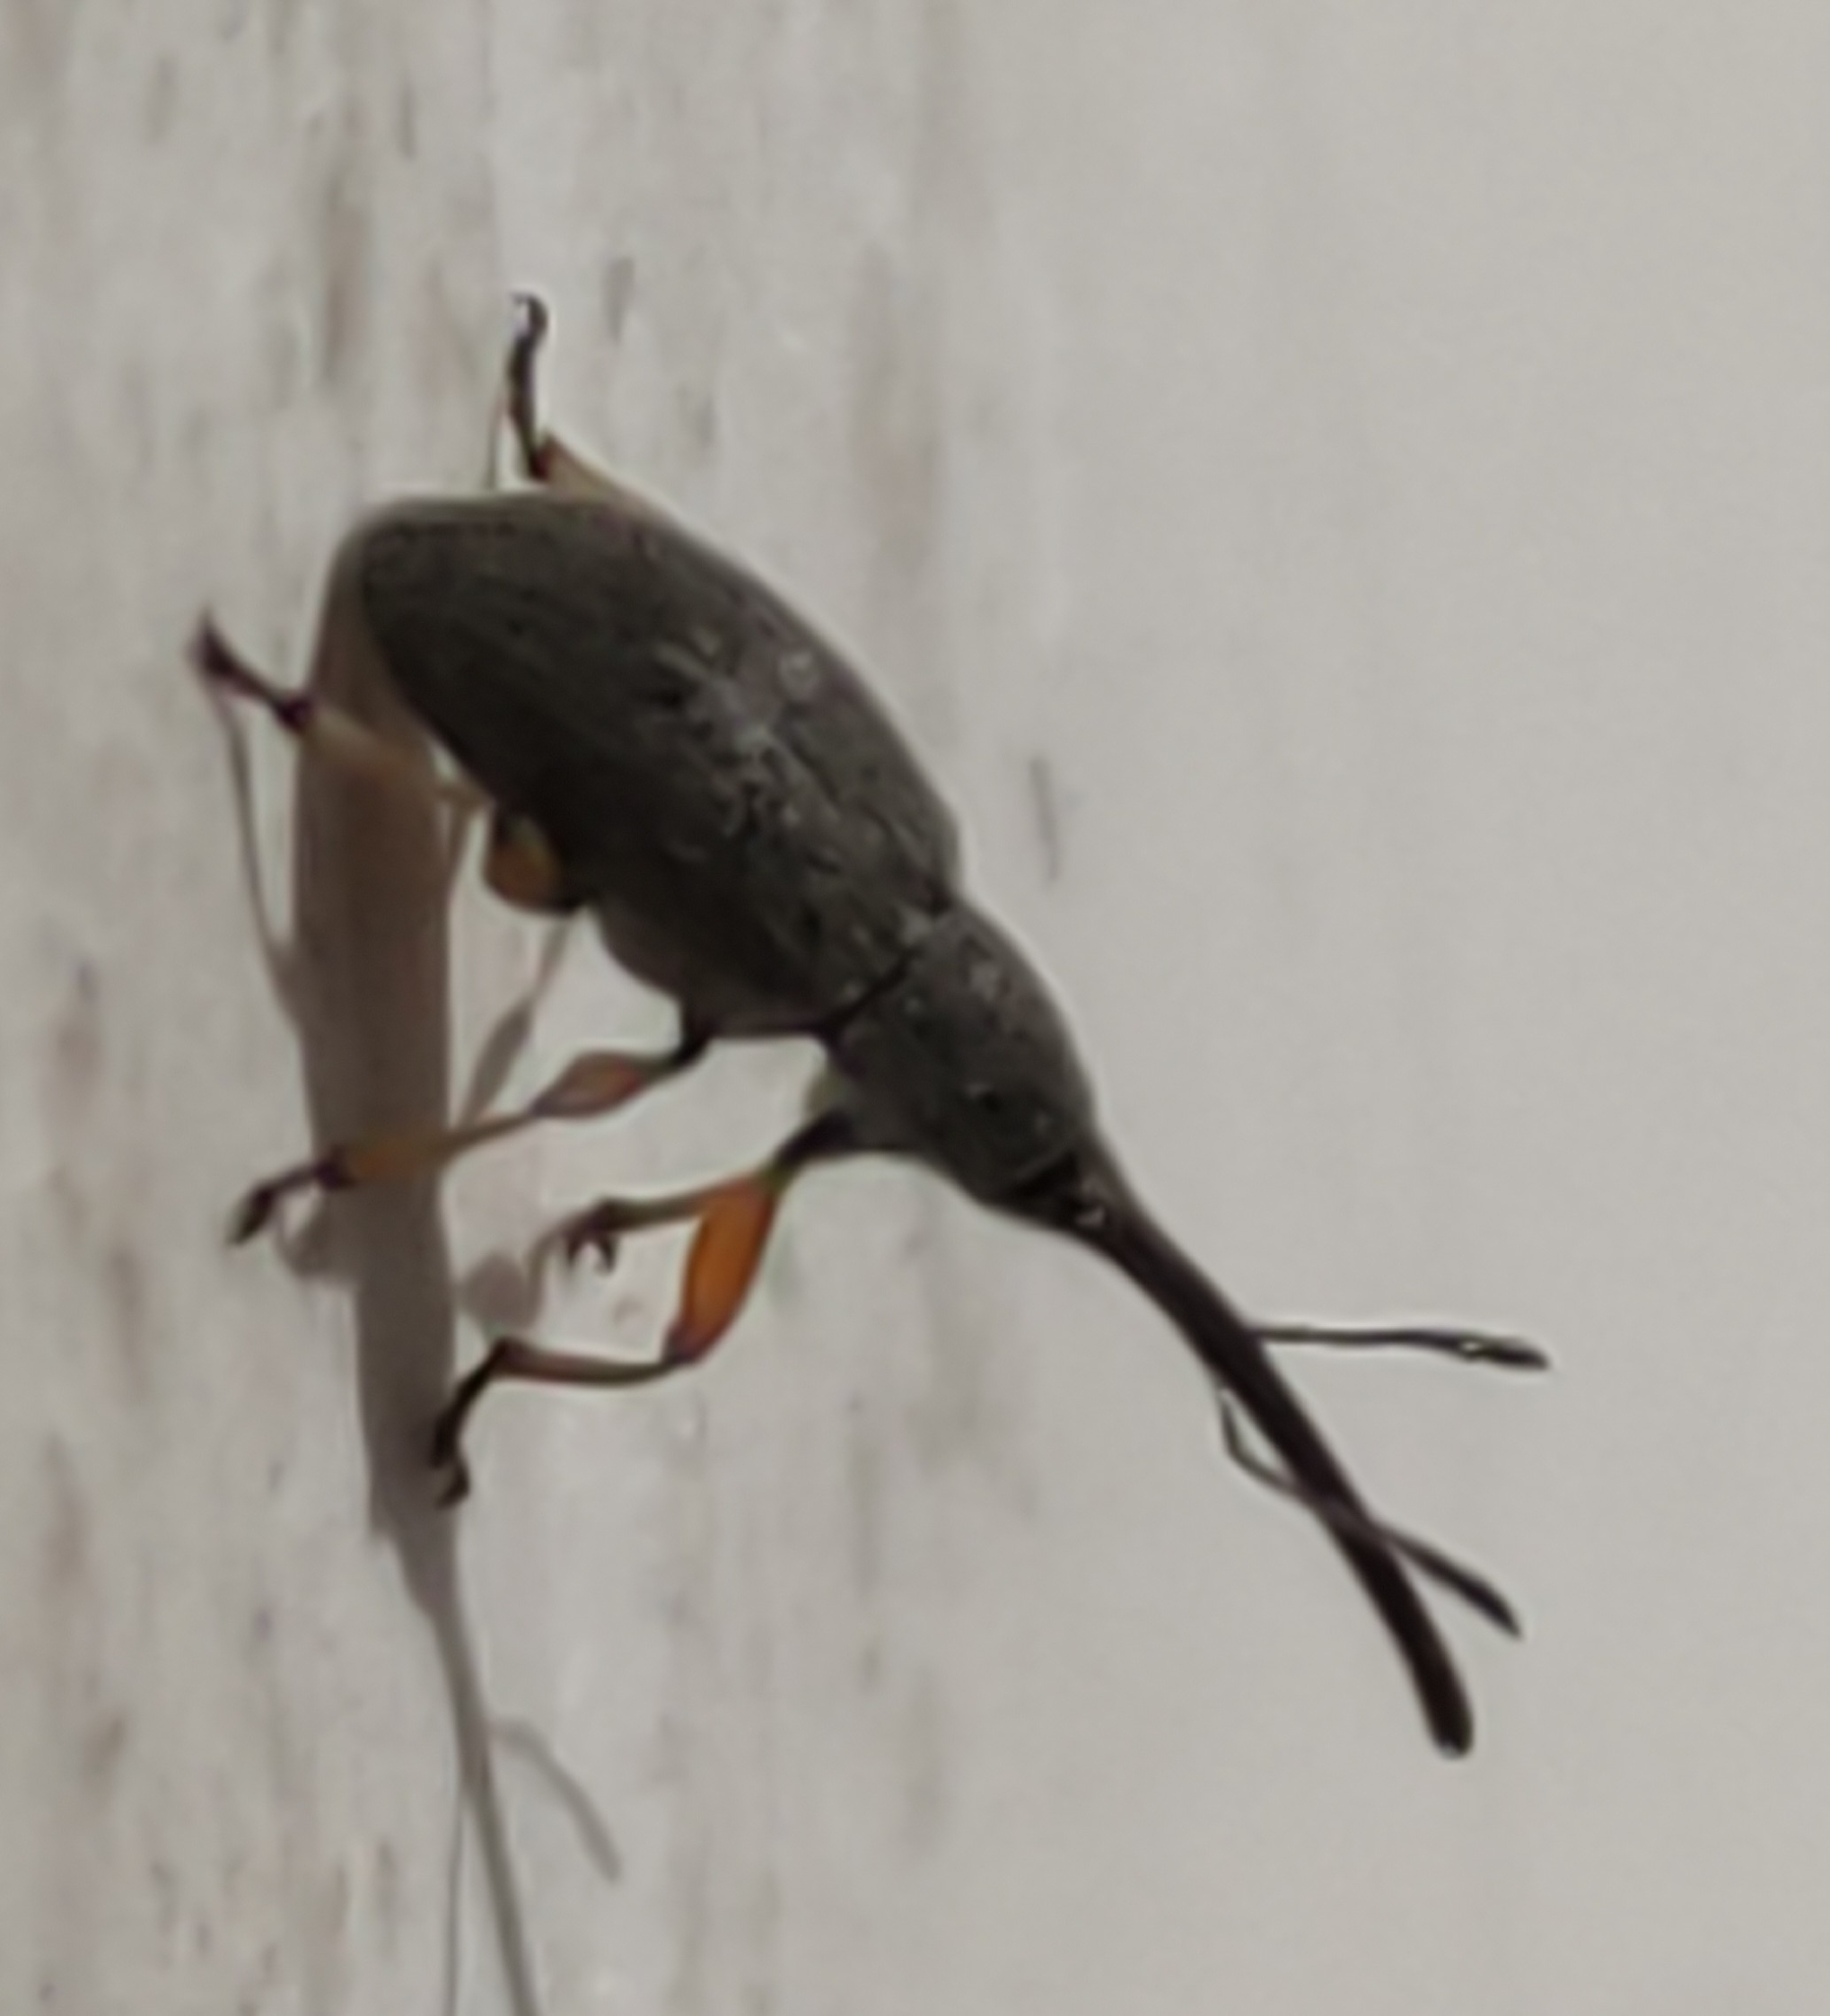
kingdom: Animalia
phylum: Arthropoda
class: Insecta
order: Coleoptera
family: Brentidae
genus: Rhopalapion
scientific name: Rhopalapion longirostre
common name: Hollyhock weevil
